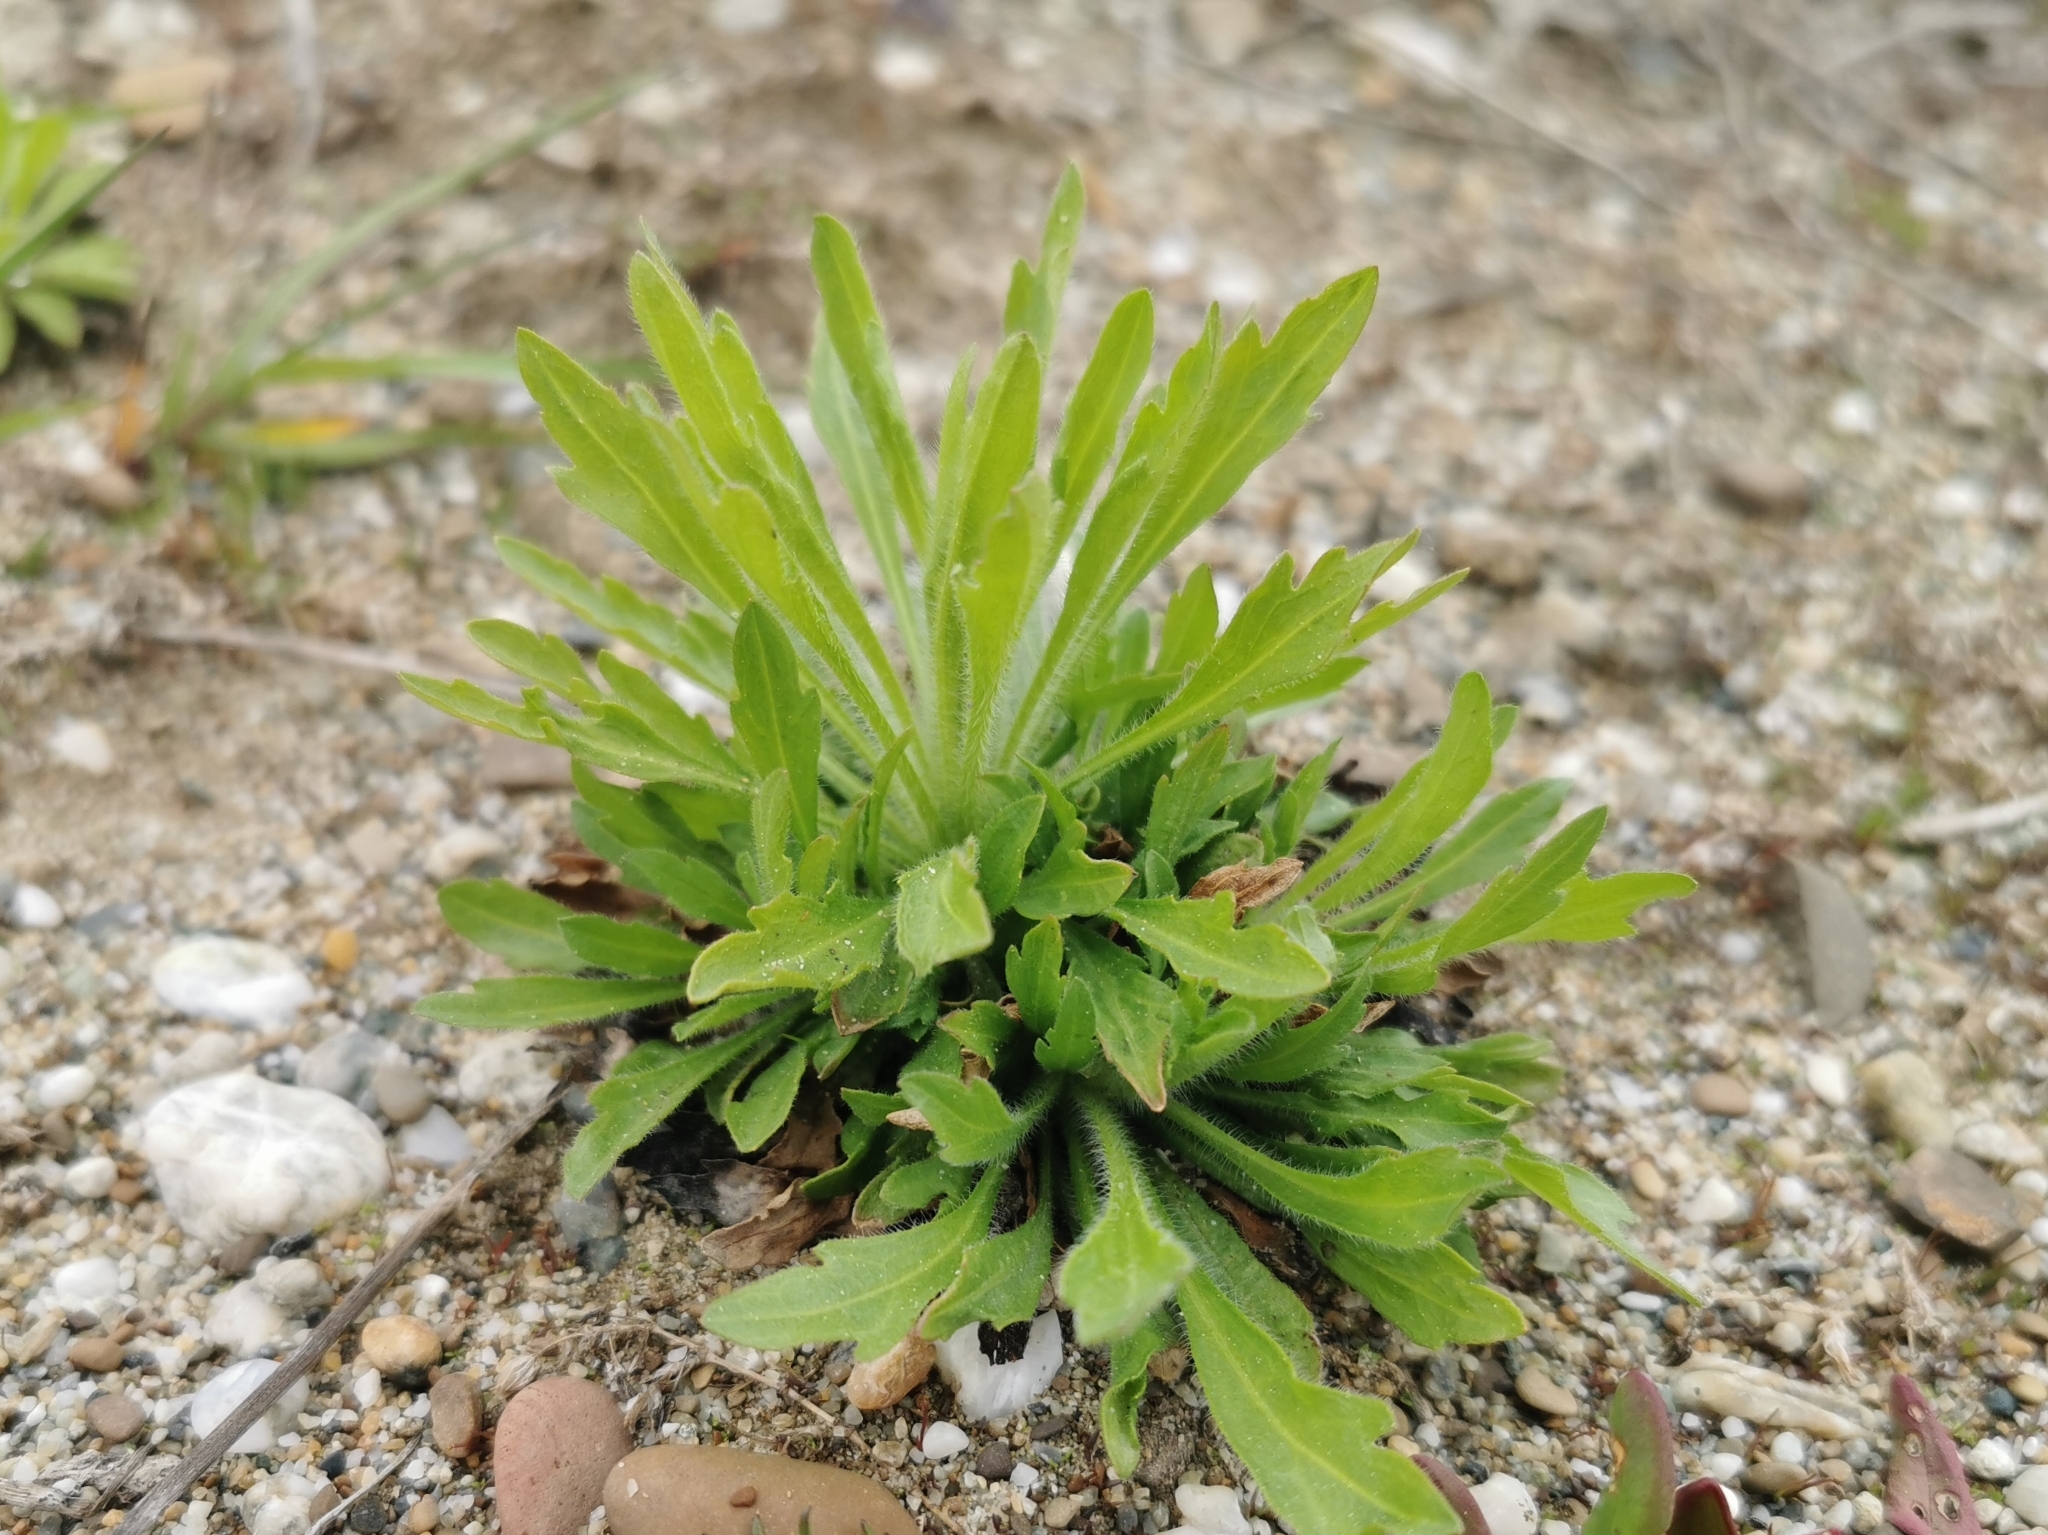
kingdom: Plantae
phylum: Tracheophyta
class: Magnoliopsida
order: Asterales
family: Asteraceae
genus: Erigeron
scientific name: Erigeron canadensis
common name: Canadian fleabane
